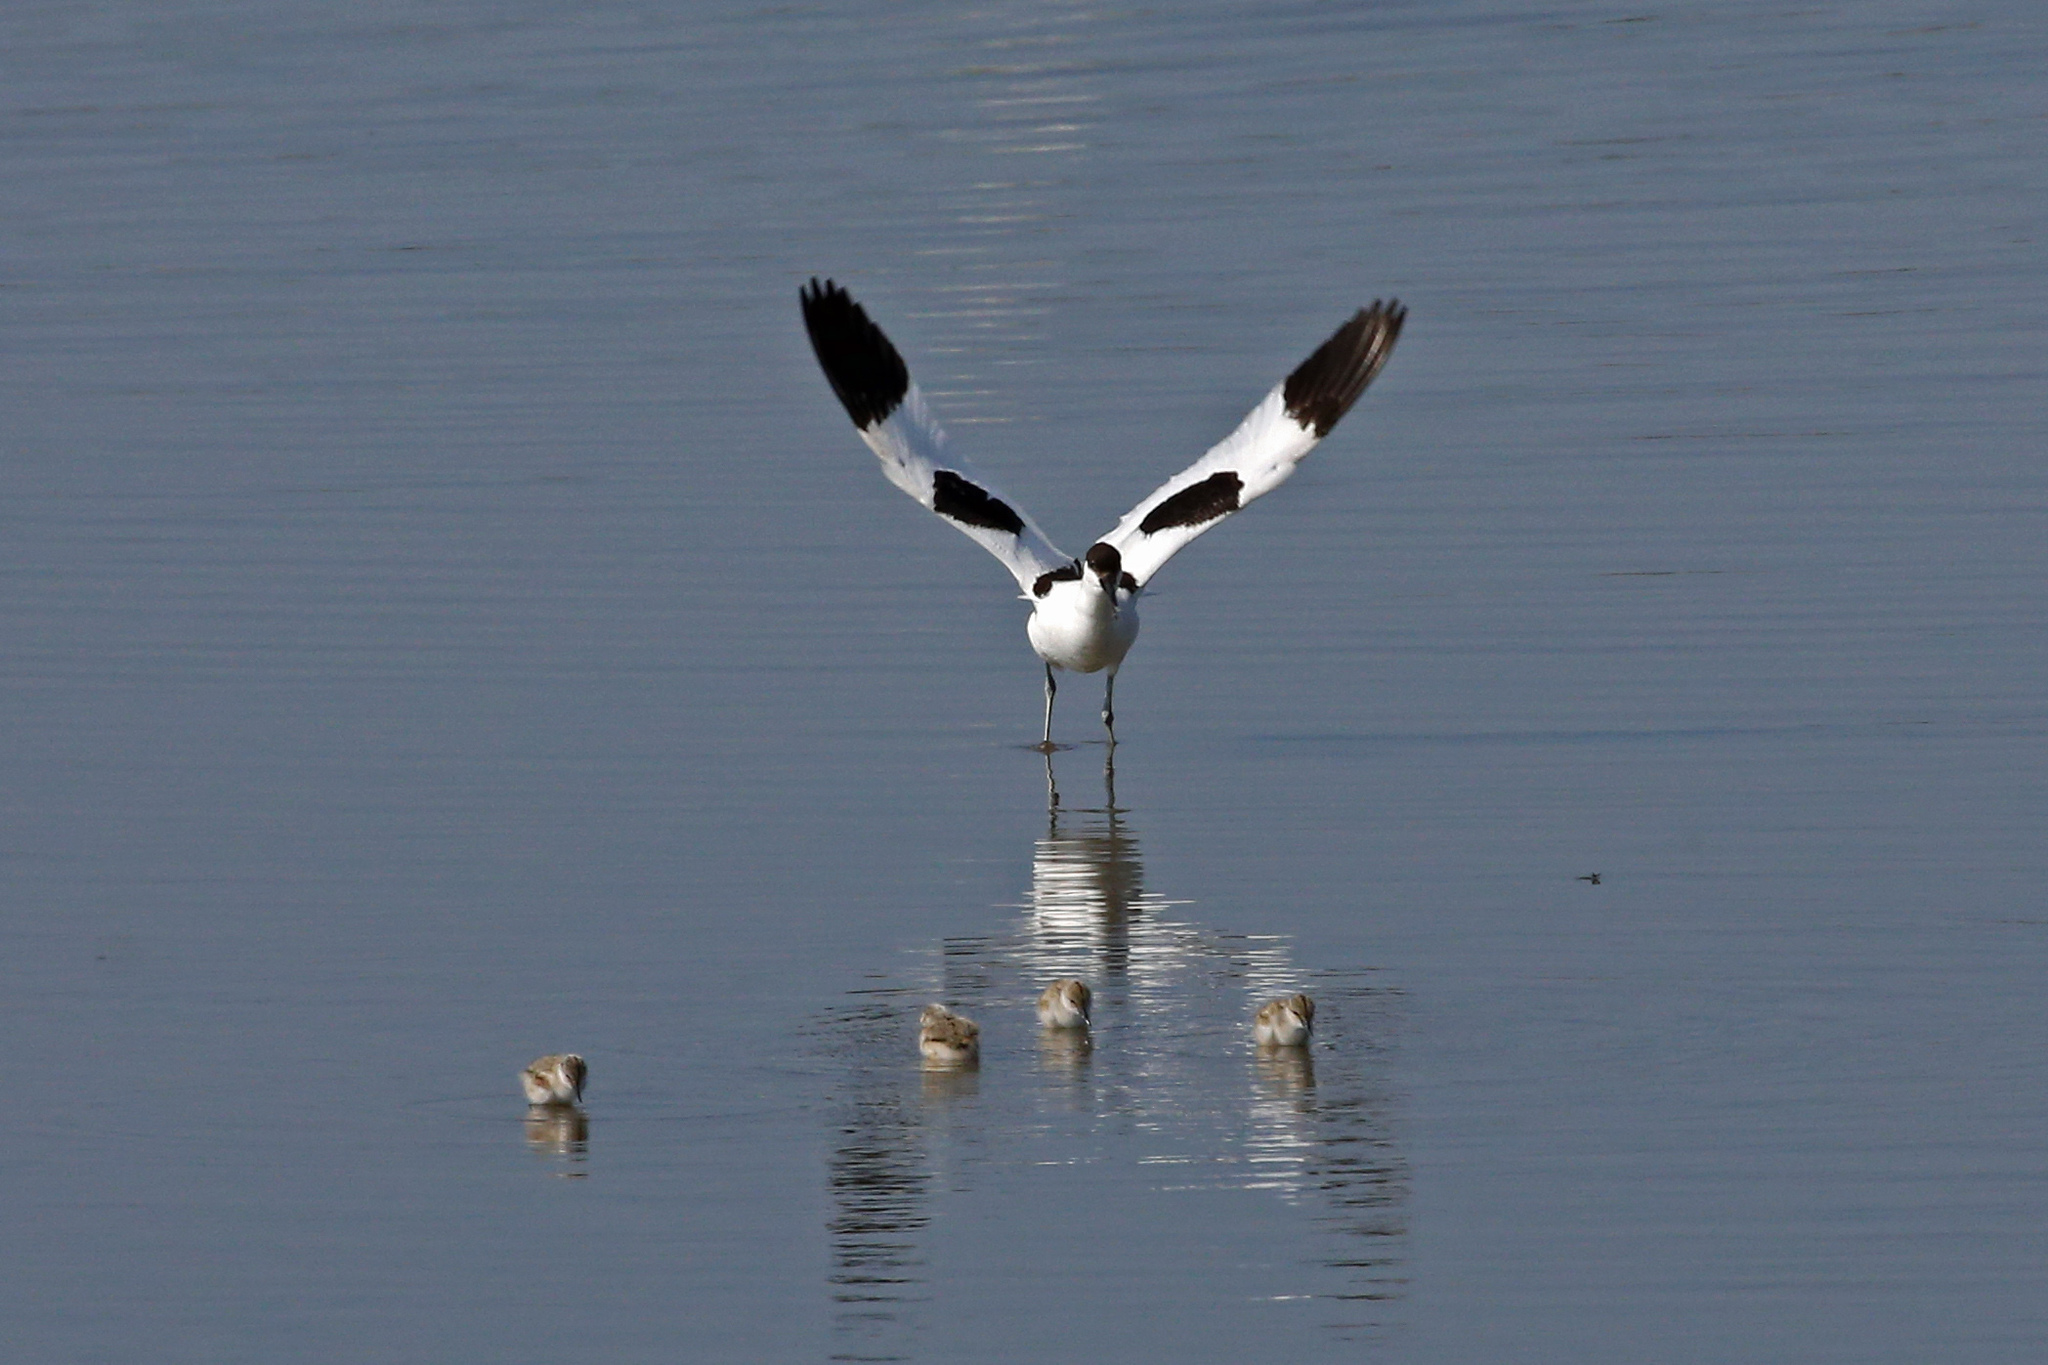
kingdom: Animalia
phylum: Chordata
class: Aves
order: Charadriiformes
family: Recurvirostridae
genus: Recurvirostra
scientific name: Recurvirostra avosetta
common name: Pied avocet
